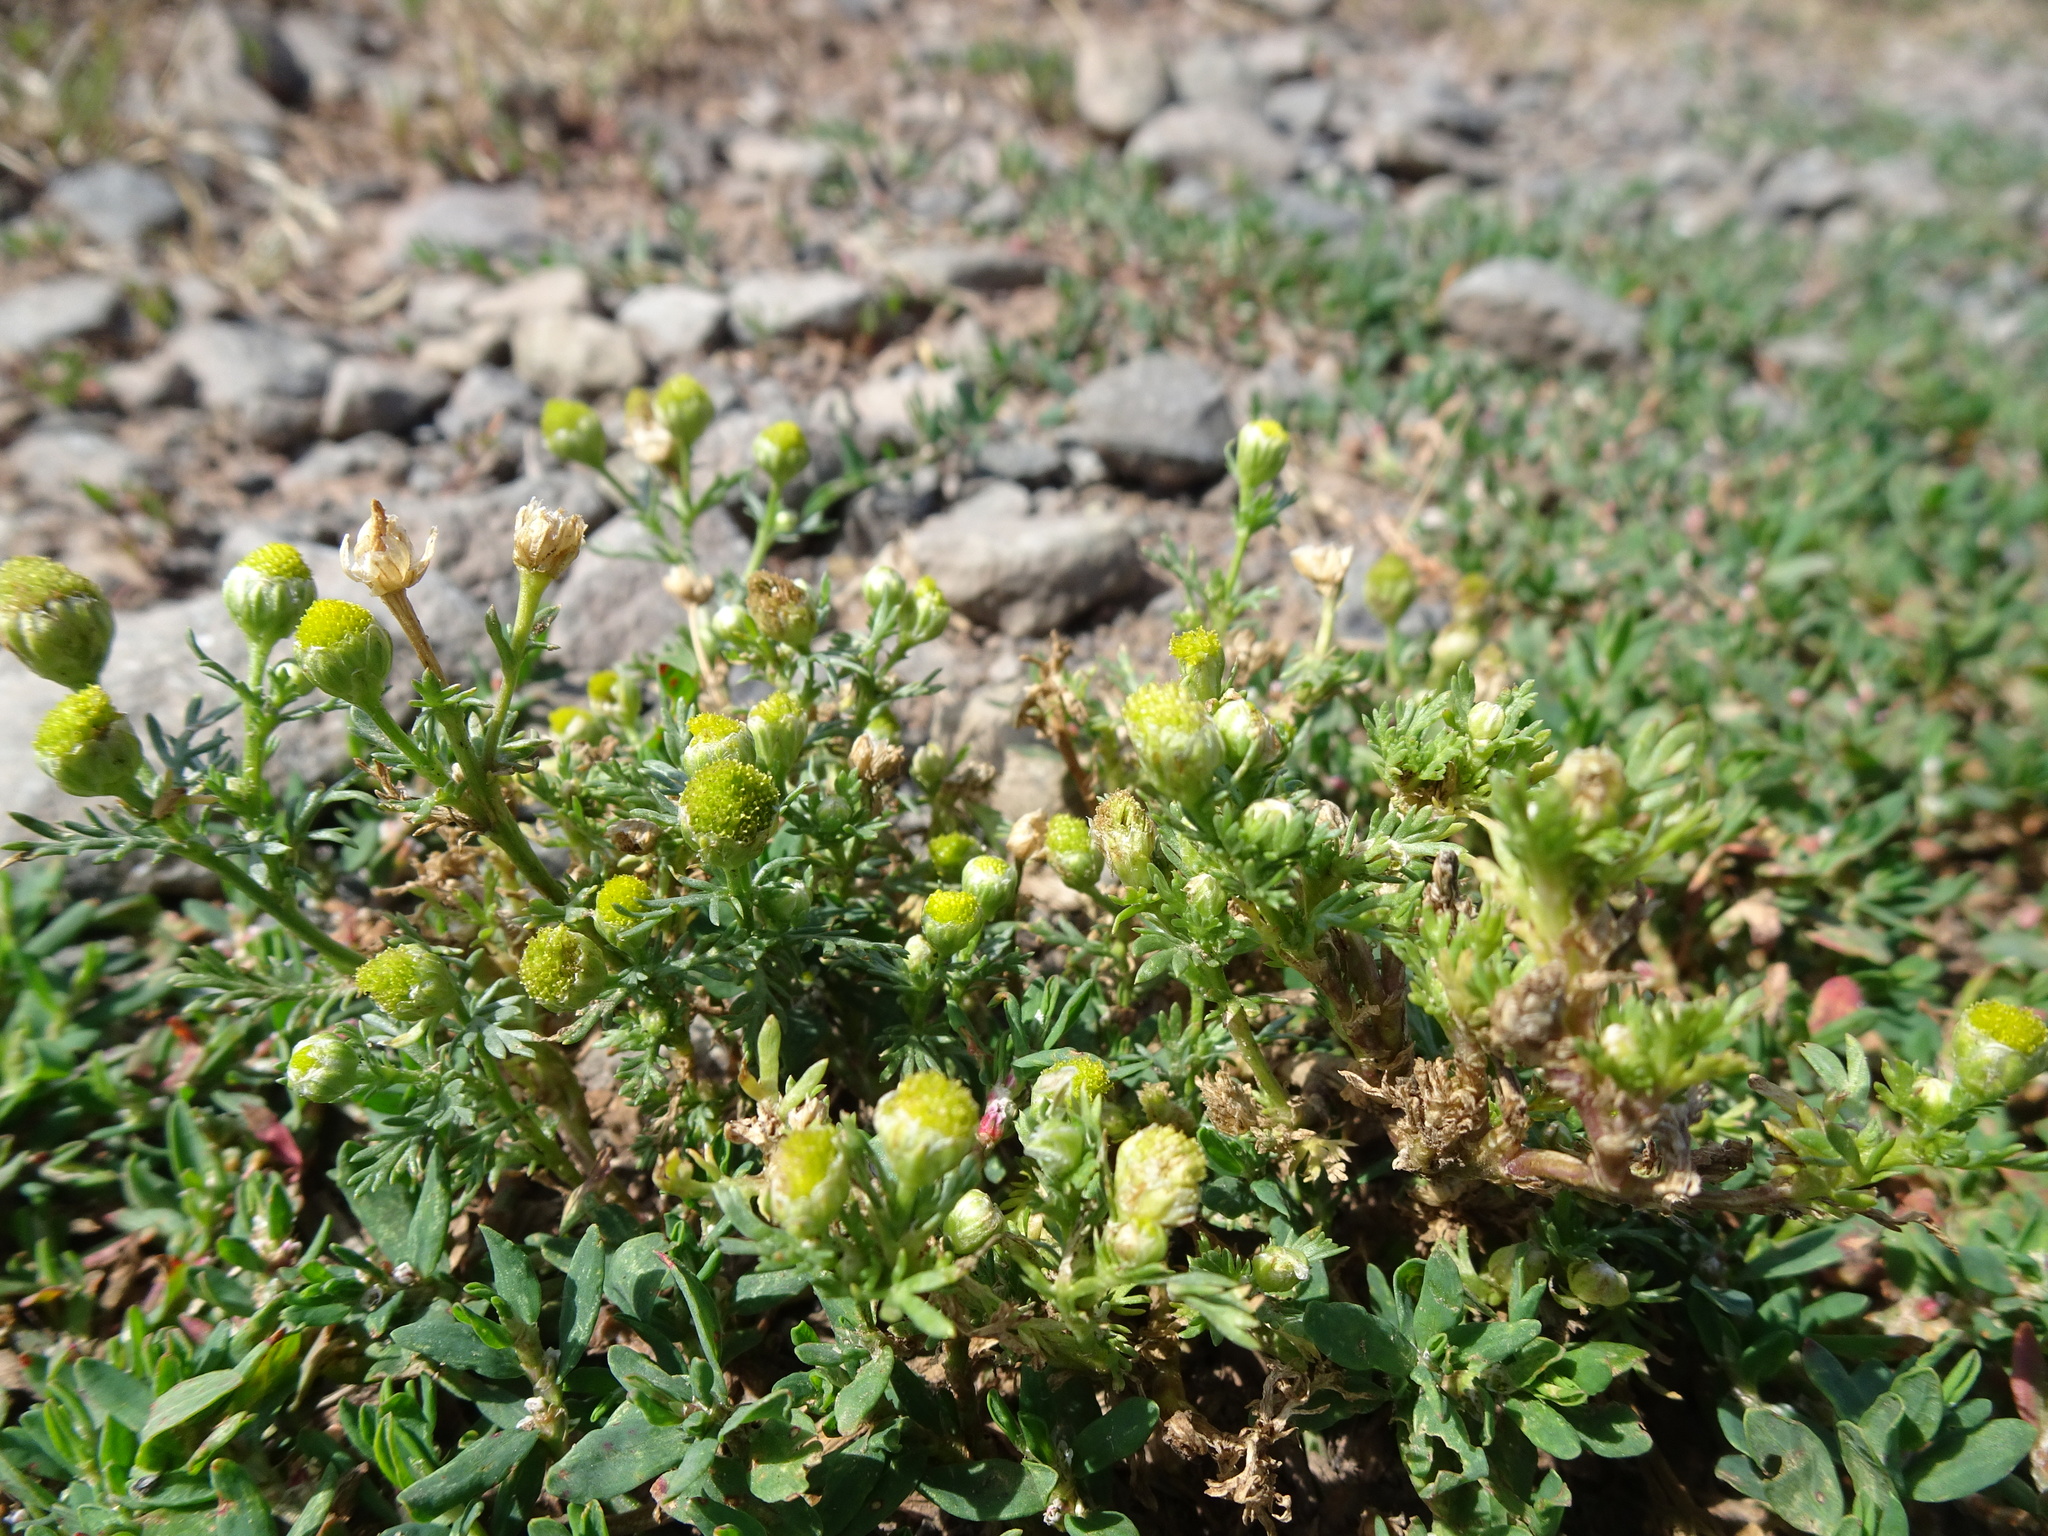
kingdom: Plantae
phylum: Tracheophyta
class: Magnoliopsida
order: Asterales
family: Asteraceae
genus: Matricaria
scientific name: Matricaria discoidea
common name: Disc mayweed
